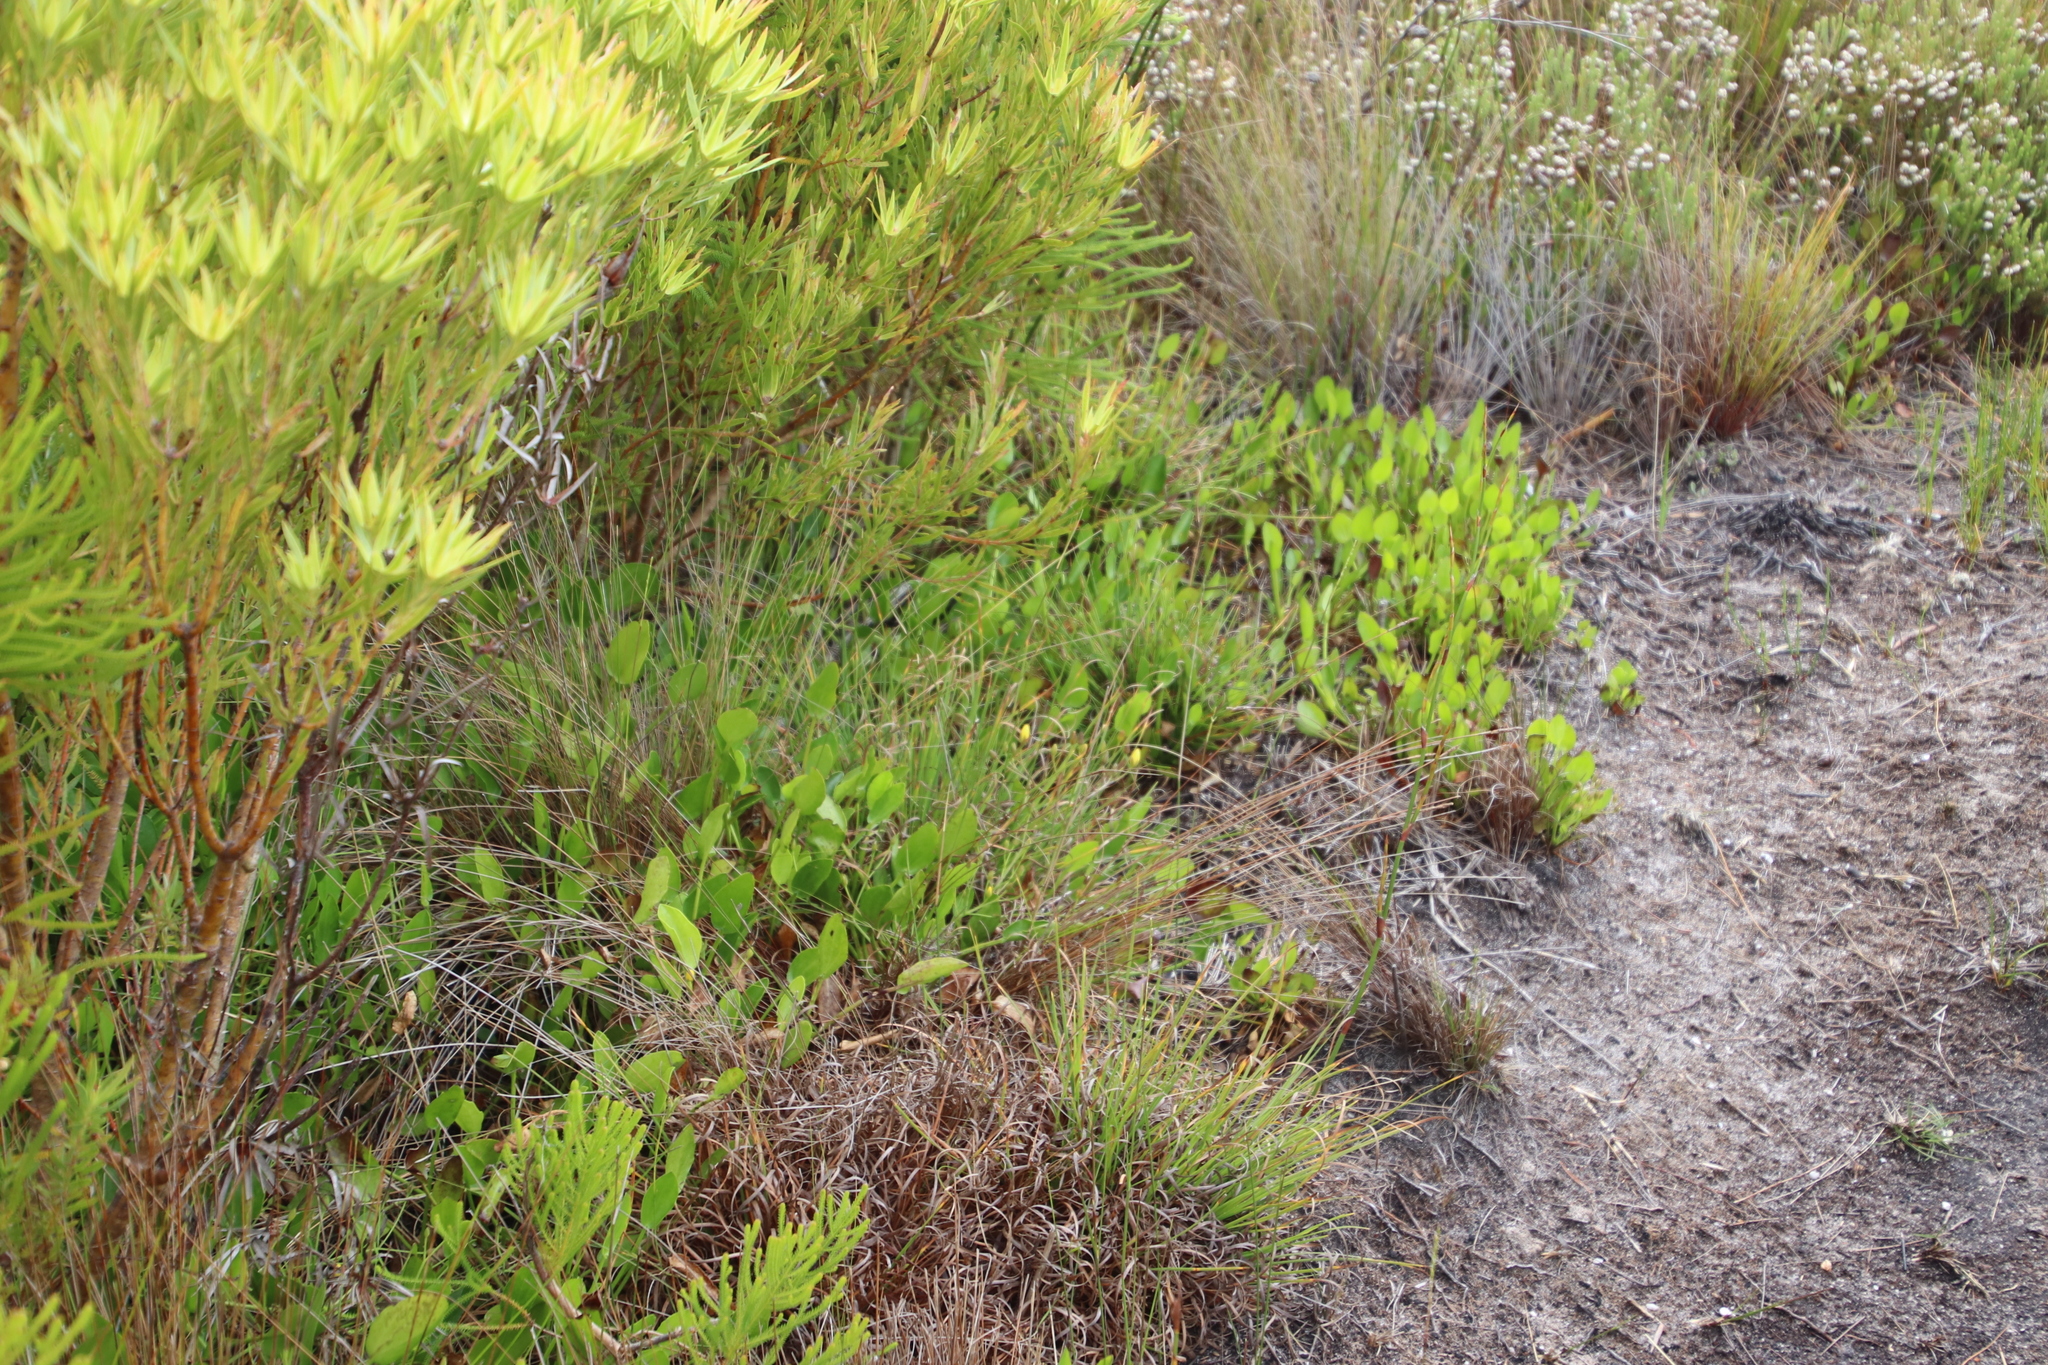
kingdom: Plantae
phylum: Tracheophyta
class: Magnoliopsida
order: Asterales
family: Menyanthaceae
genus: Villarsia
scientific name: Villarsia manningiana
